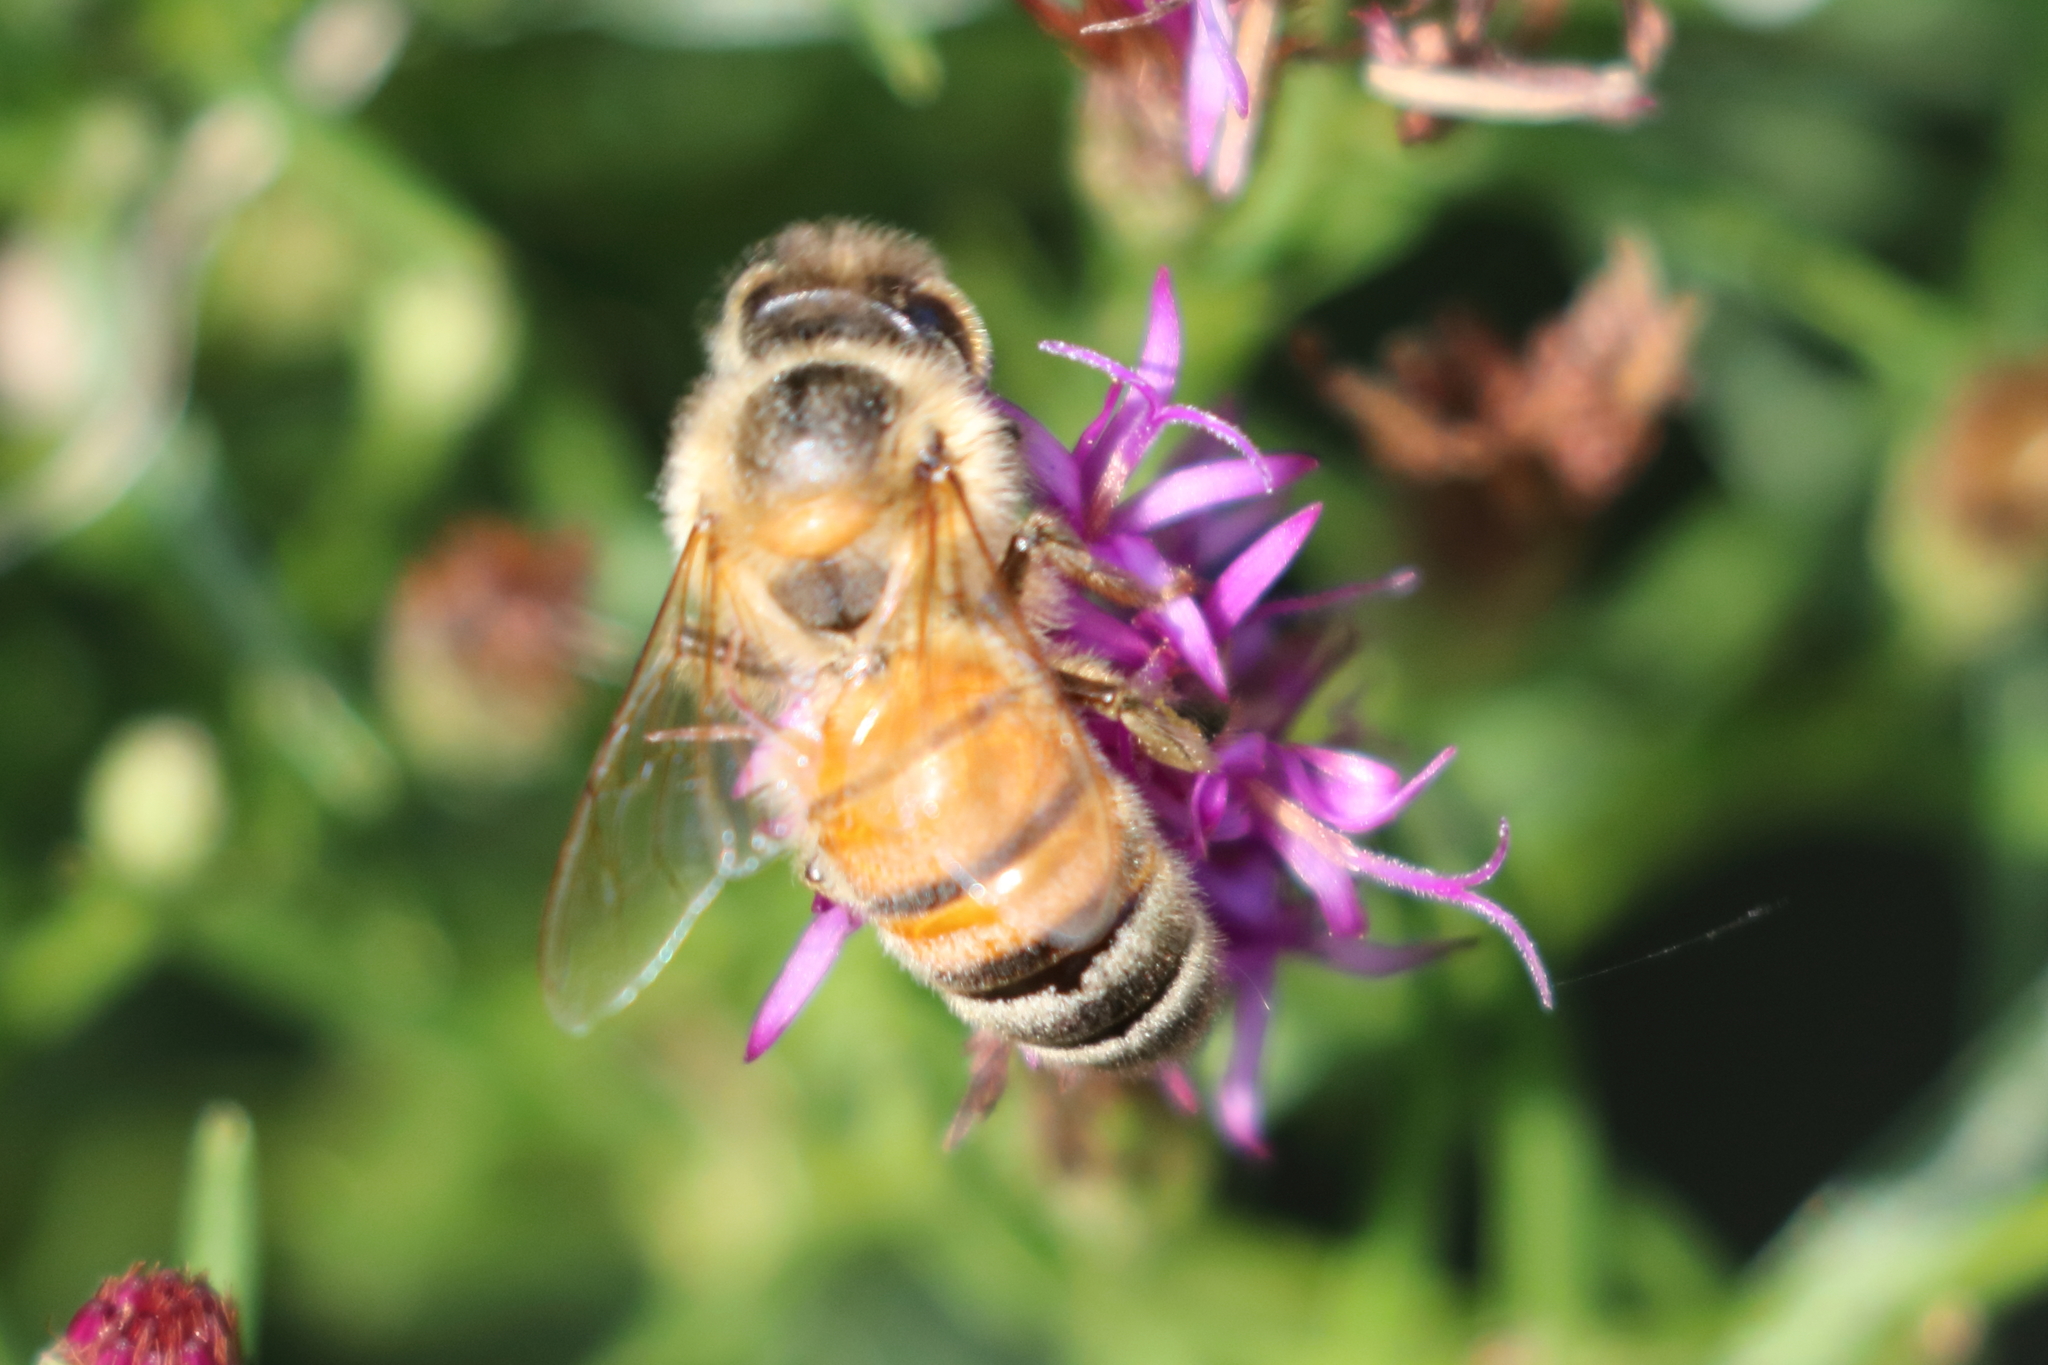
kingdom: Animalia
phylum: Arthropoda
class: Insecta
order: Hymenoptera
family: Apidae
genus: Apis
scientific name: Apis mellifera
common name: Honey bee
